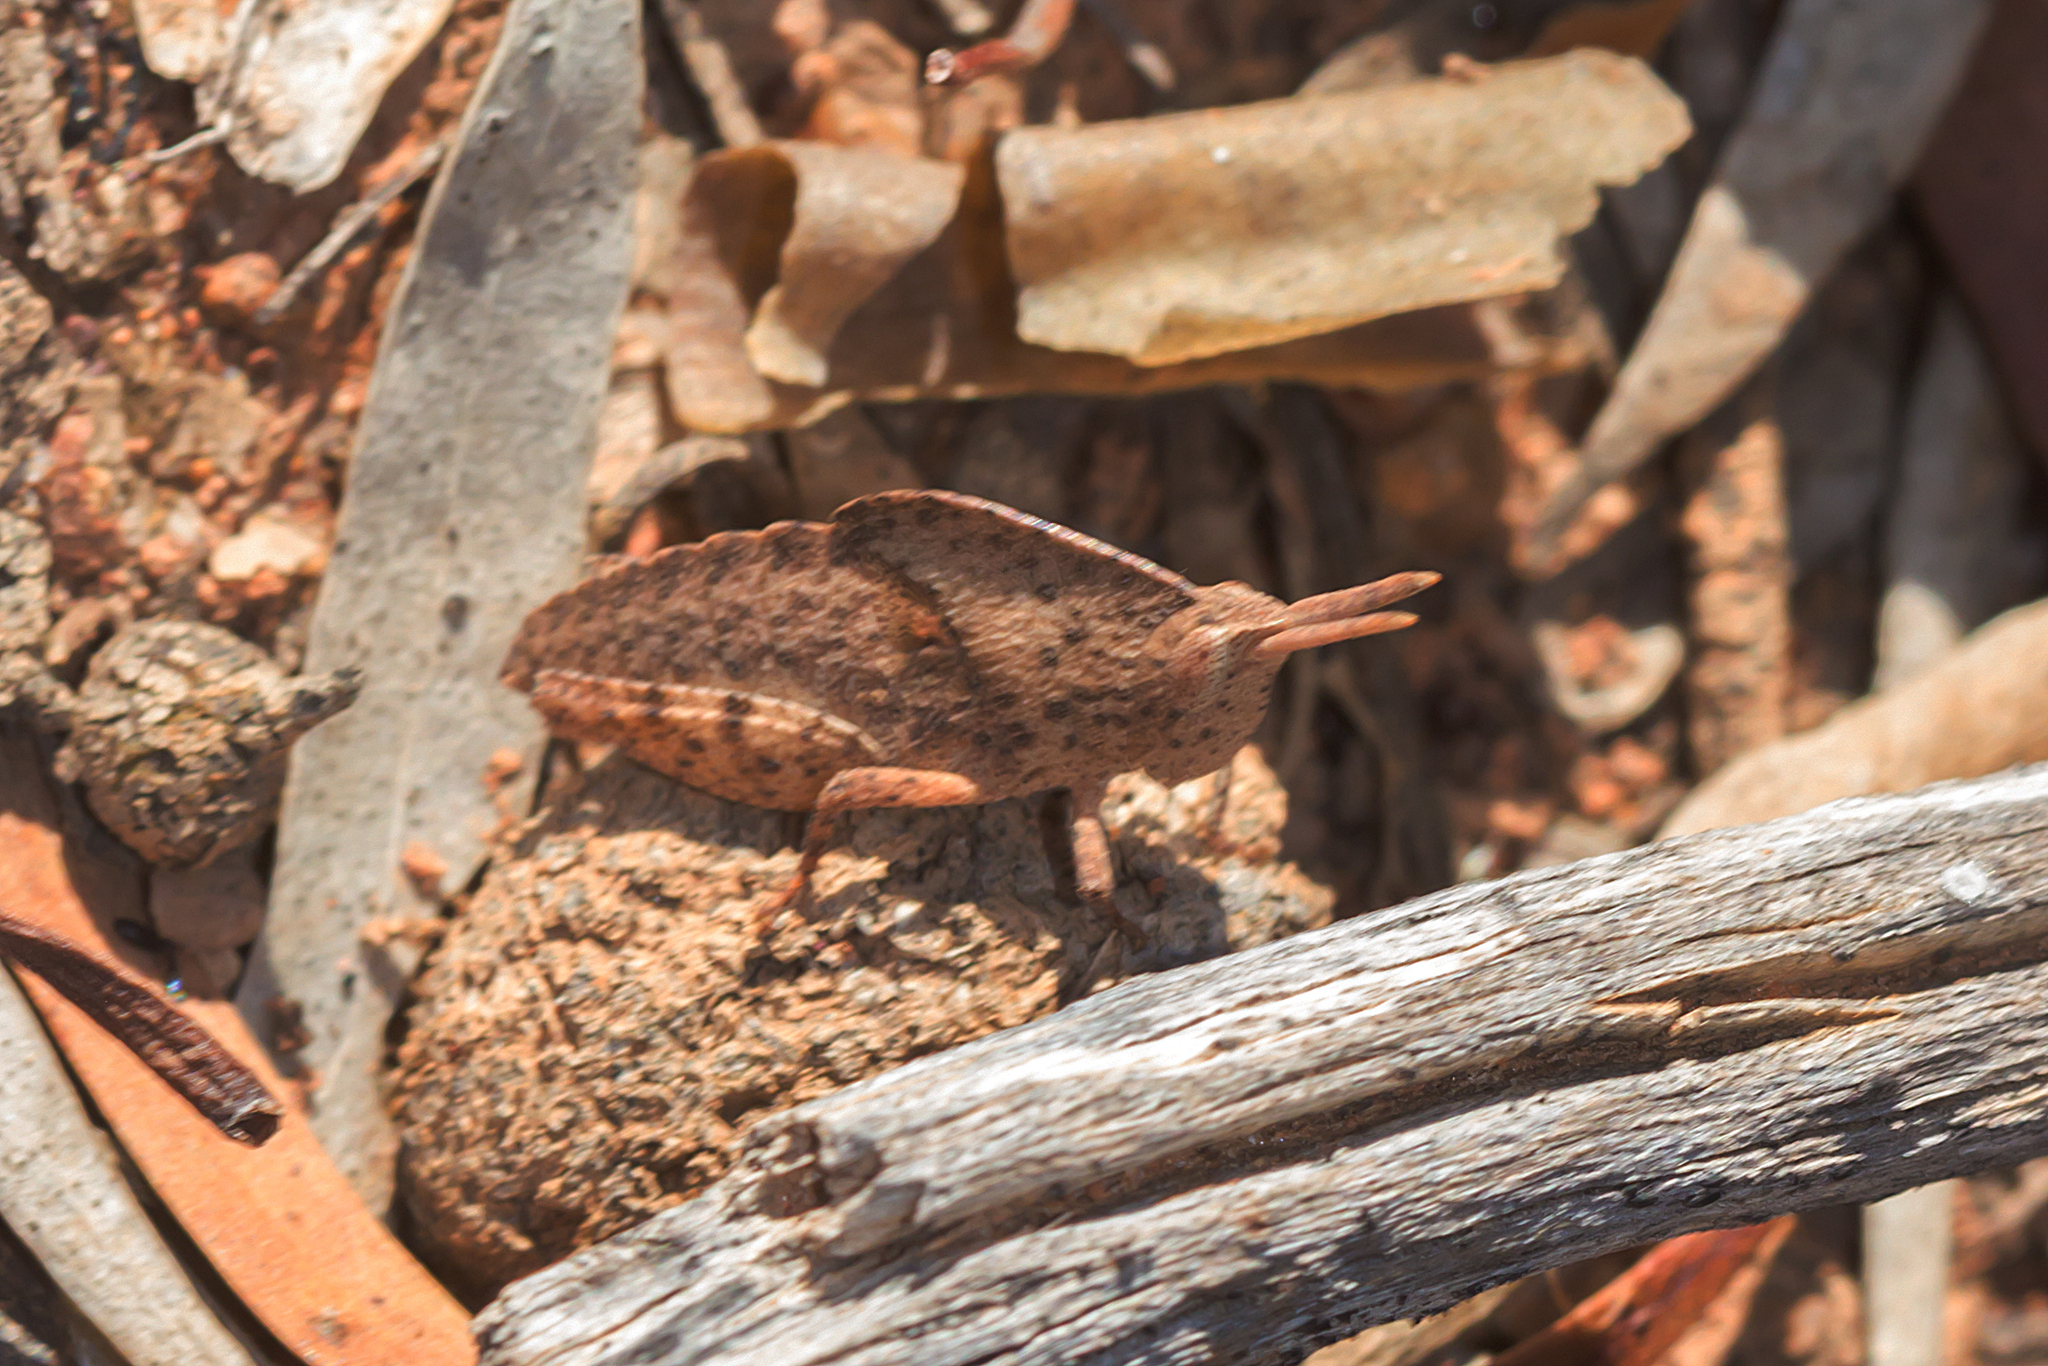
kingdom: Animalia
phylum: Arthropoda
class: Insecta
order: Orthoptera
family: Acrididae
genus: Goniaea
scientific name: Goniaea australasiae
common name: Gumleaf grasshopper
